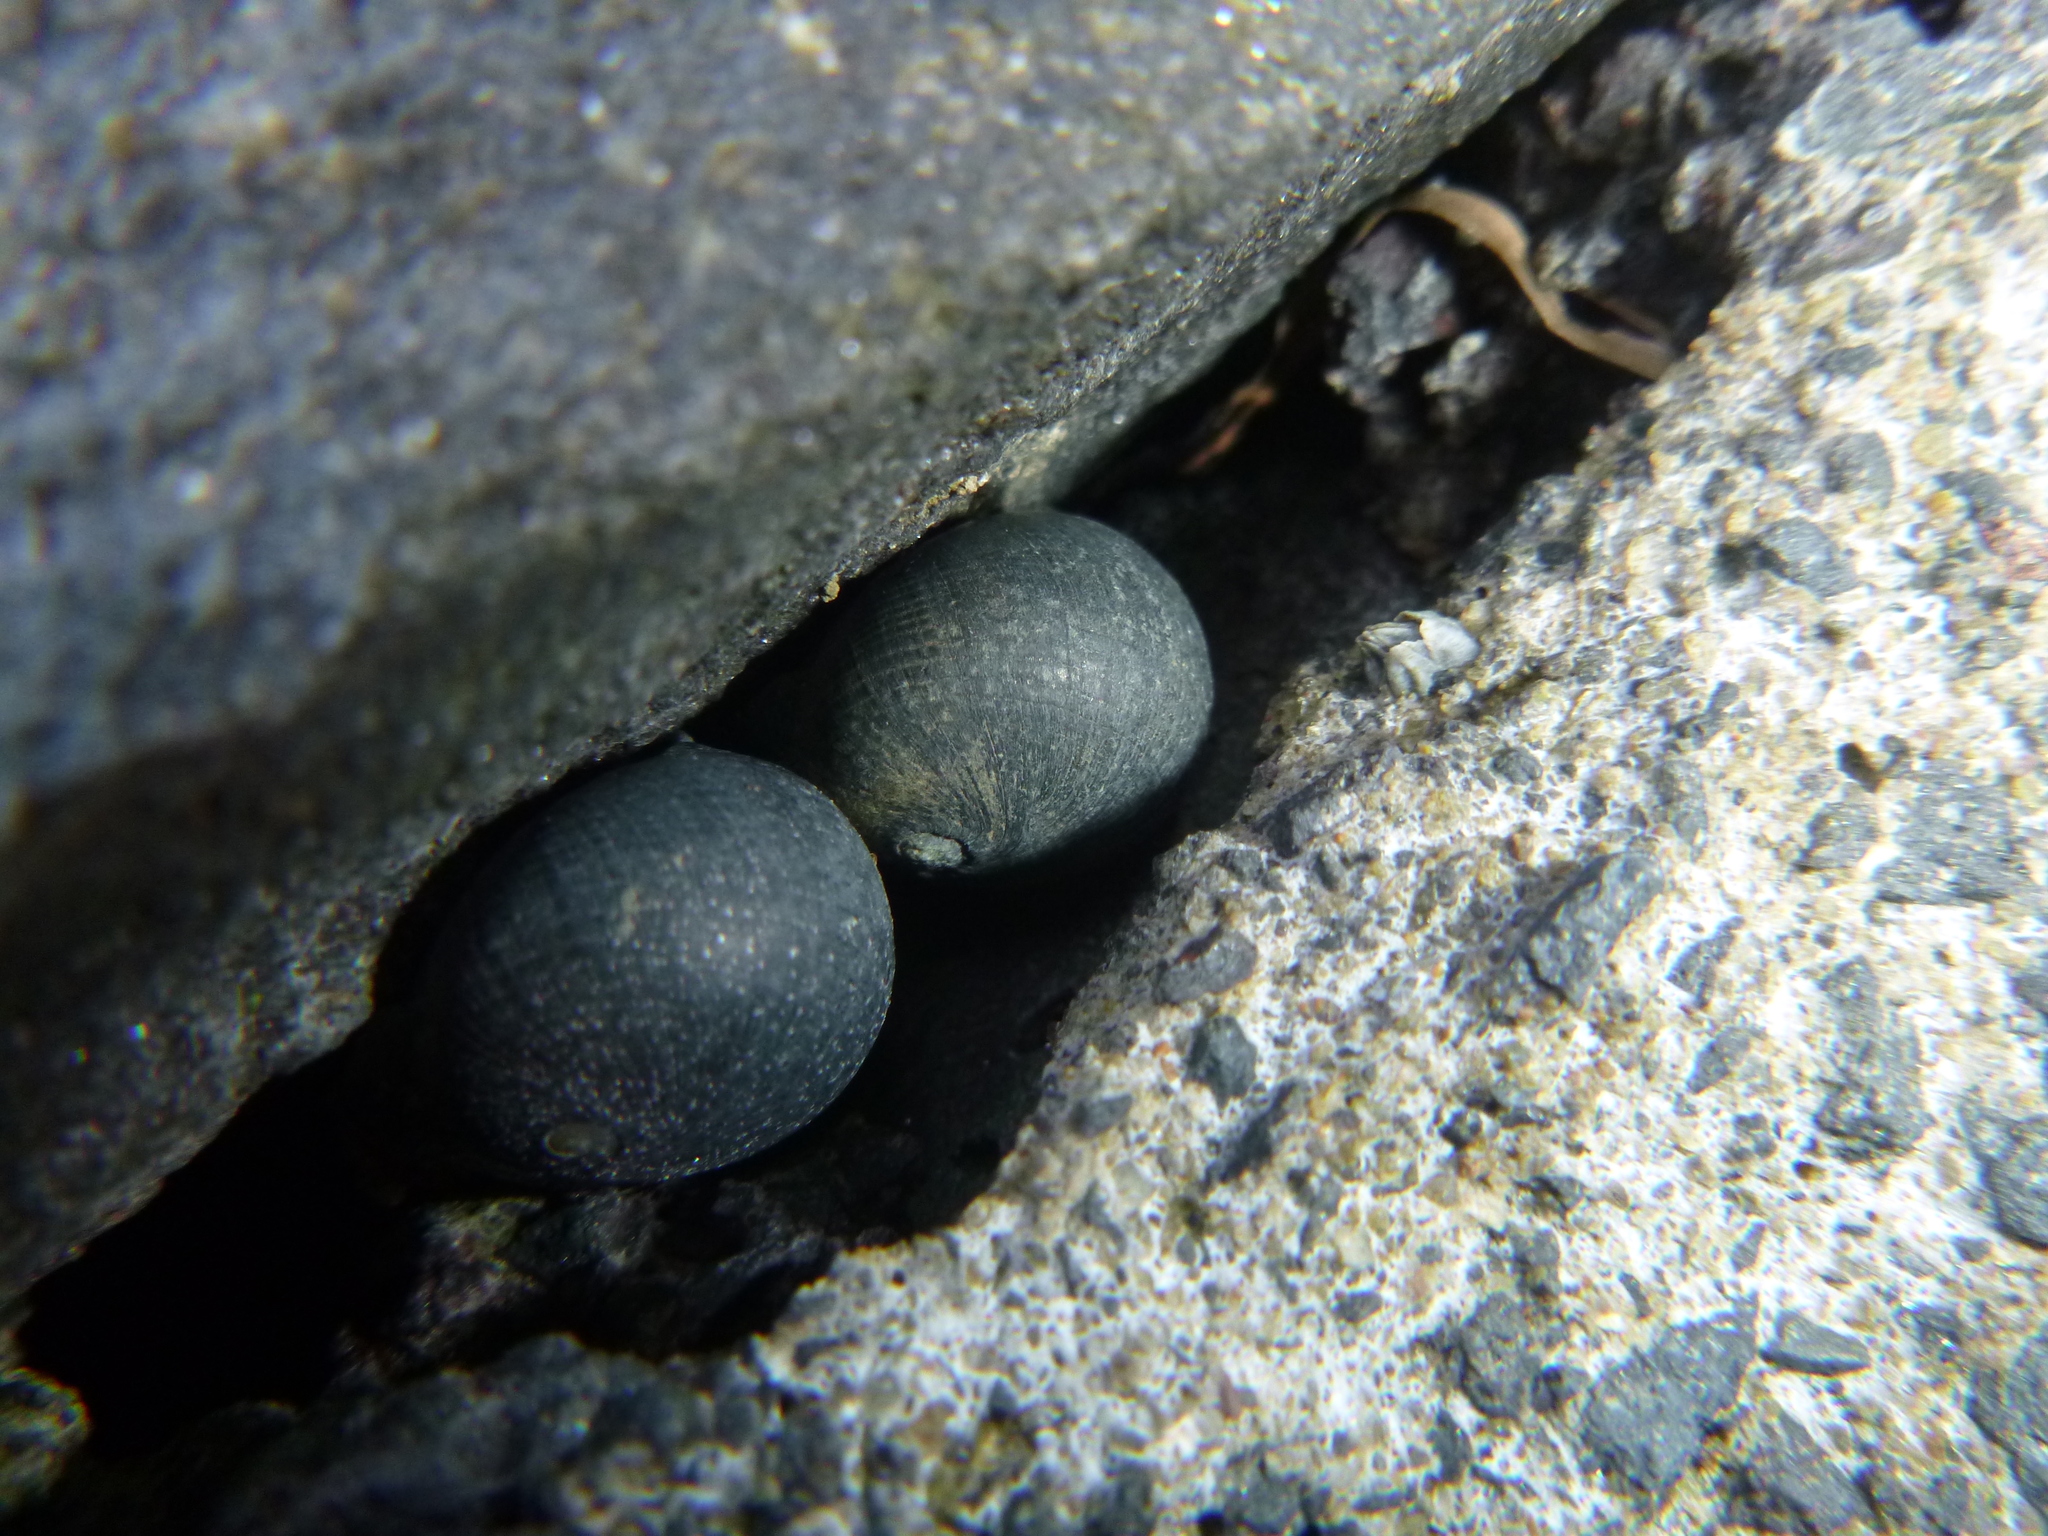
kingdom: Animalia
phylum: Mollusca
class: Gastropoda
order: Cycloneritida
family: Neritidae
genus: Nerita
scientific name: Nerita melanotragus
